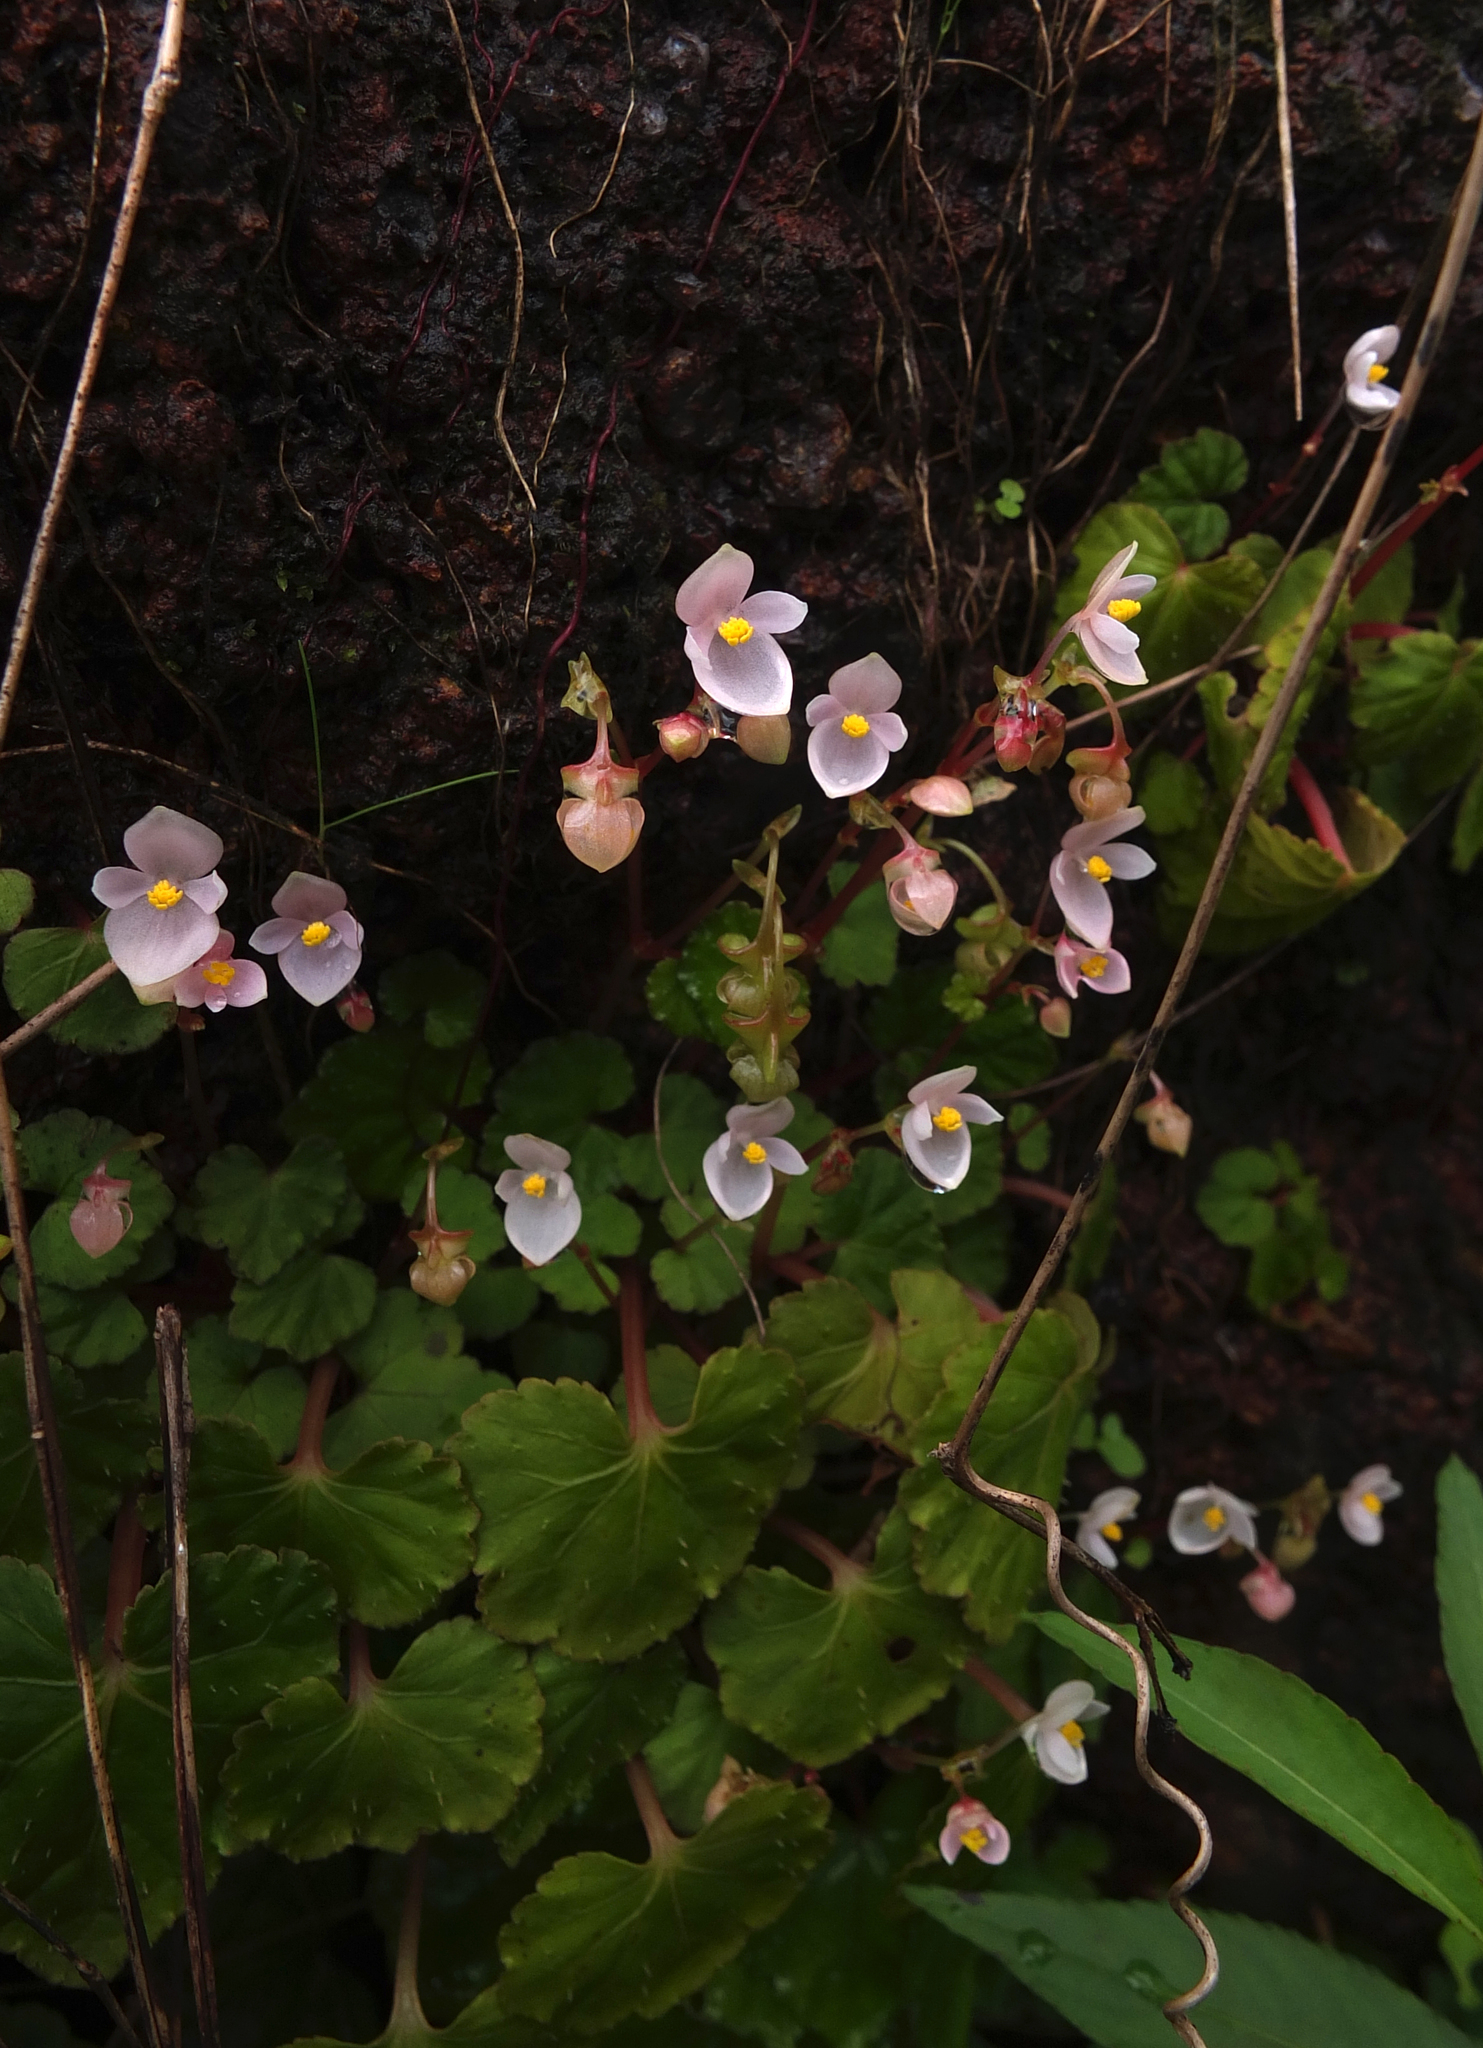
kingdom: Plantae
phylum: Tracheophyta
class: Magnoliopsida
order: Cucurbitales
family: Begoniaceae
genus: Begonia
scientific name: Begonia crenata
